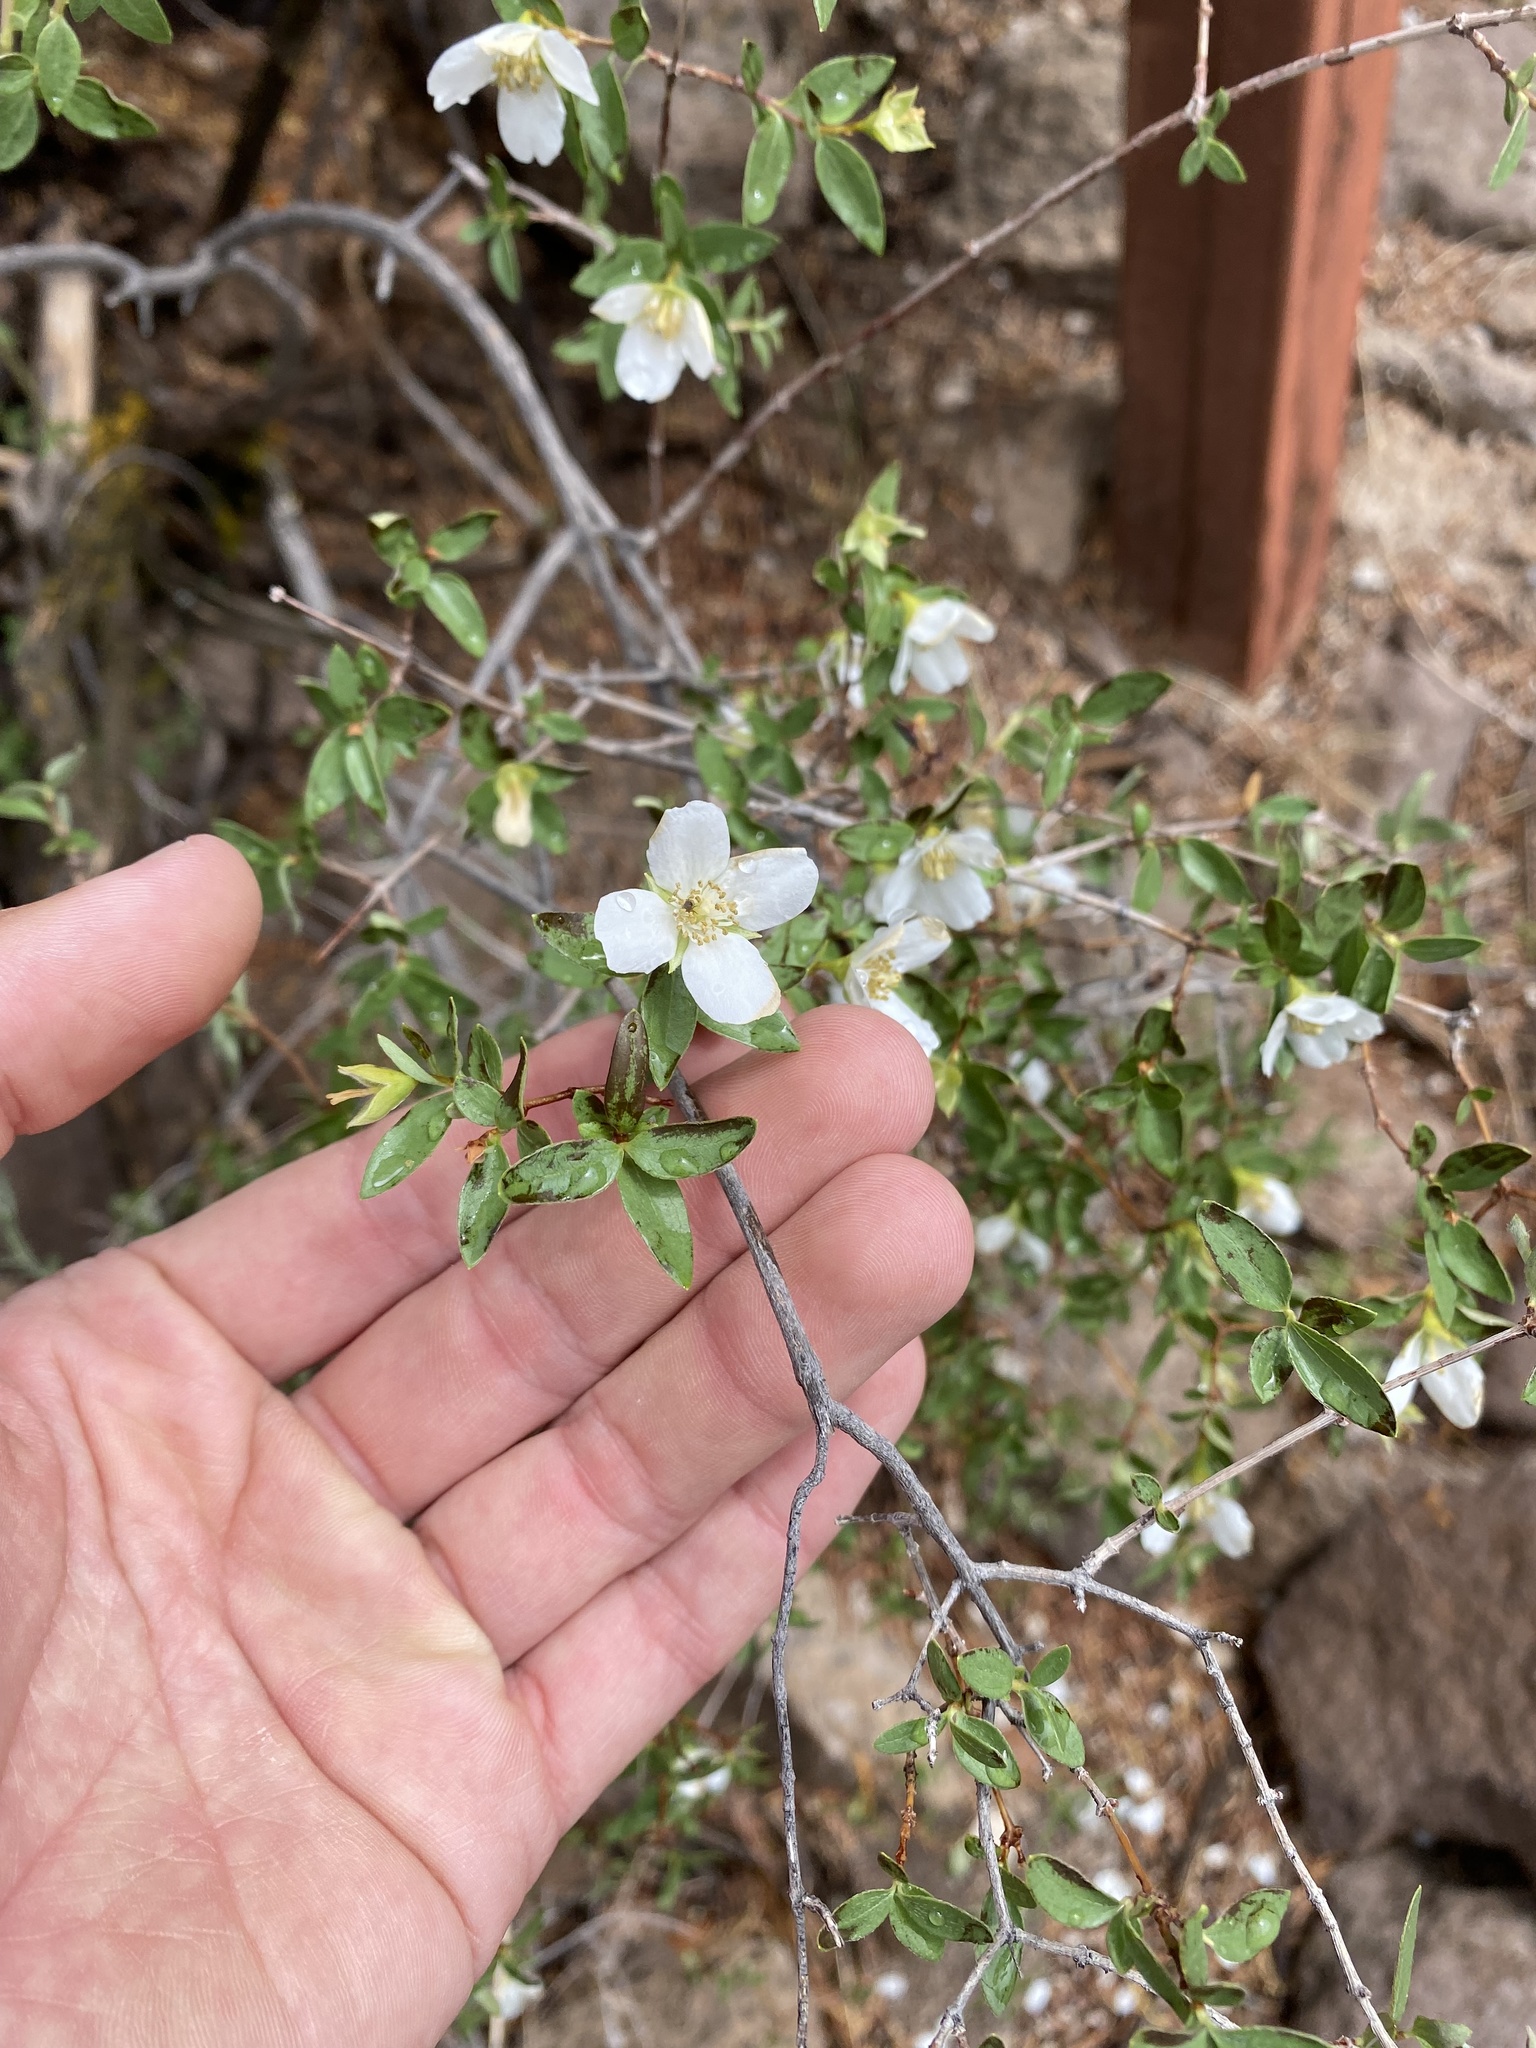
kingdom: Plantae
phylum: Tracheophyta
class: Magnoliopsida
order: Cornales
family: Hydrangeaceae
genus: Philadelphus
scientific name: Philadelphus microphyllus
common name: Desert mock orange
